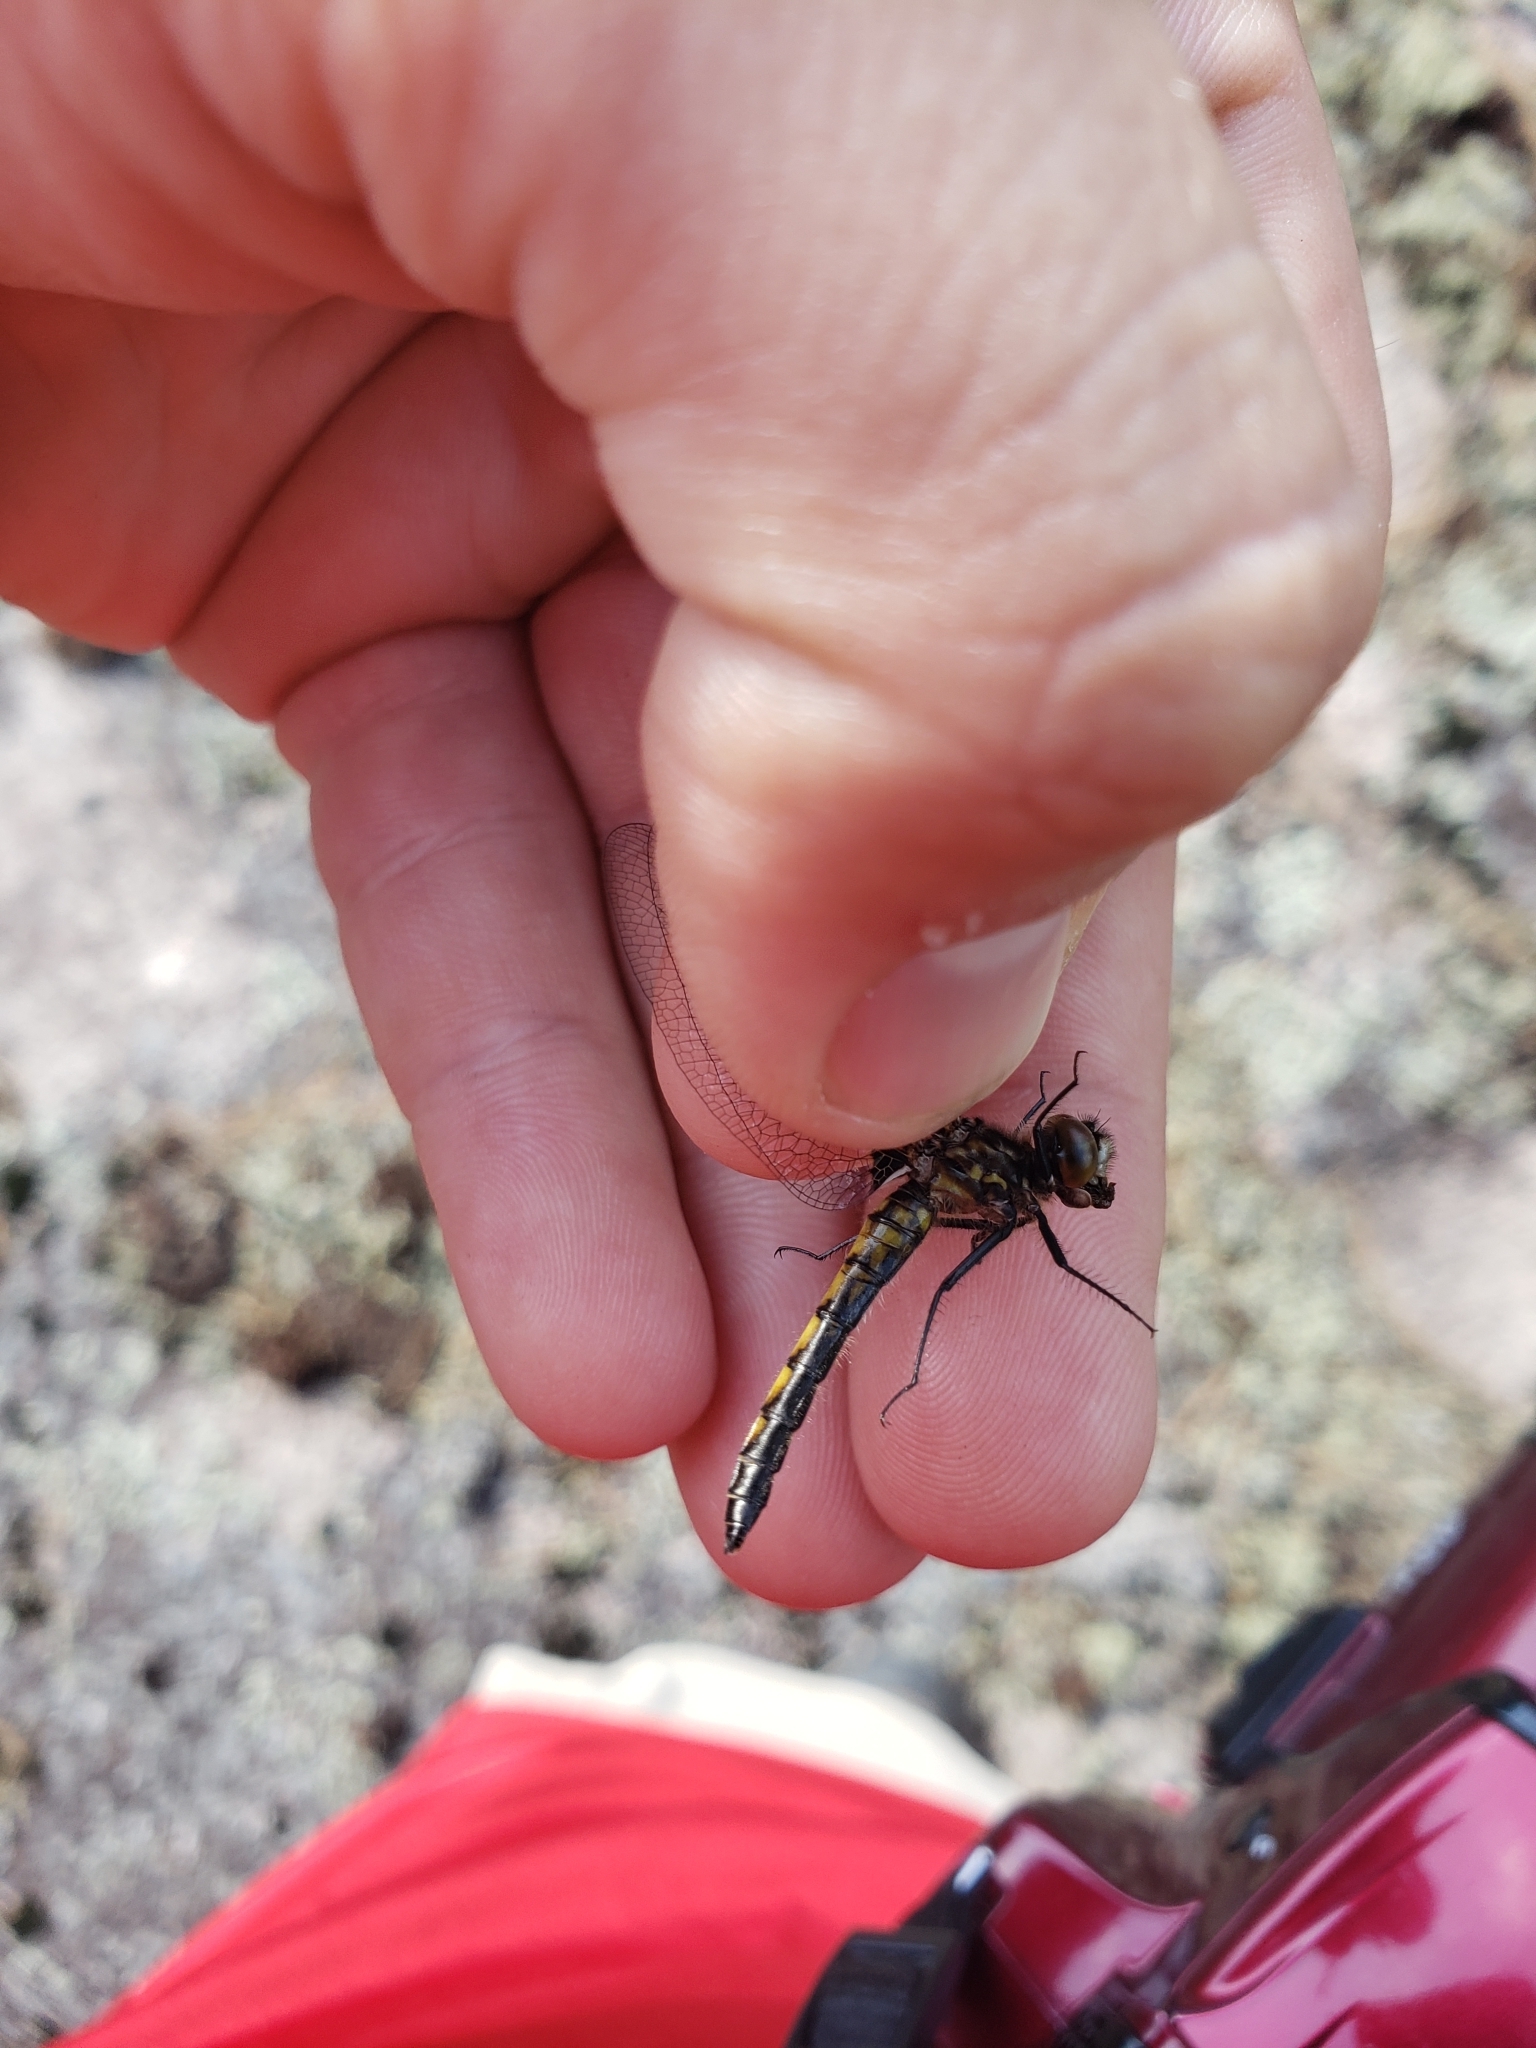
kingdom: Animalia
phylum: Arthropoda
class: Insecta
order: Odonata
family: Libellulidae
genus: Leucorrhinia
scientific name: Leucorrhinia hudsonica
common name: Hudsonian whiteface
